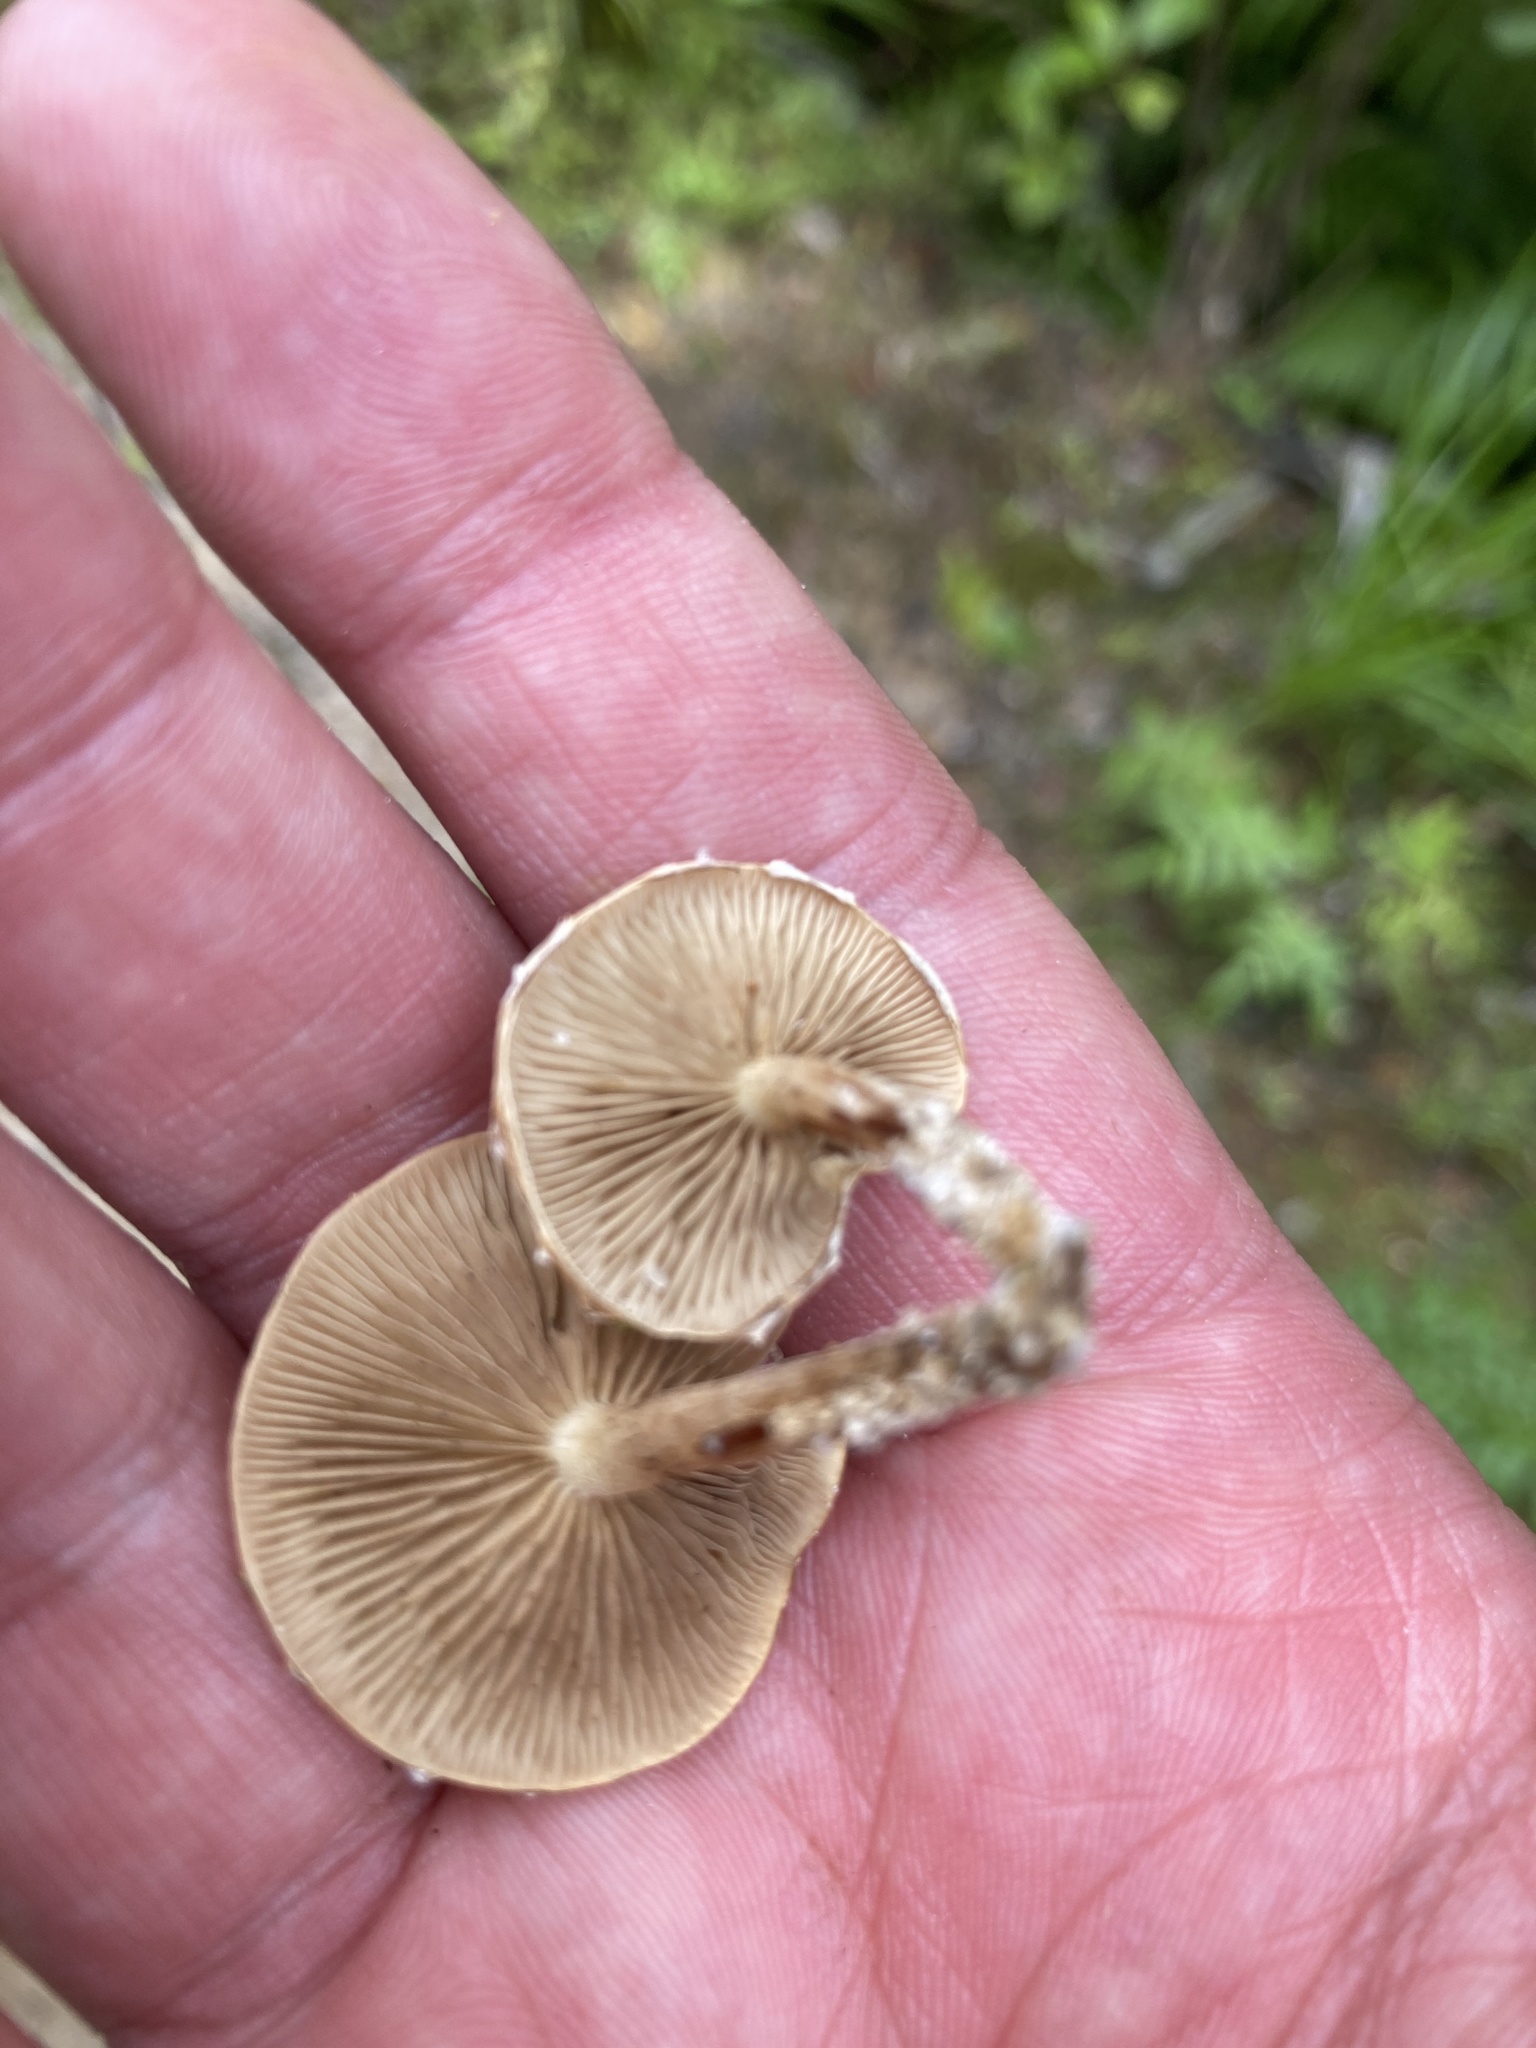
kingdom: Fungi
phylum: Basidiomycota
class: Agaricomycetes
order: Agaricales
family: Strophariaceae
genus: Pholiota
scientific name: Pholiota subflammans
